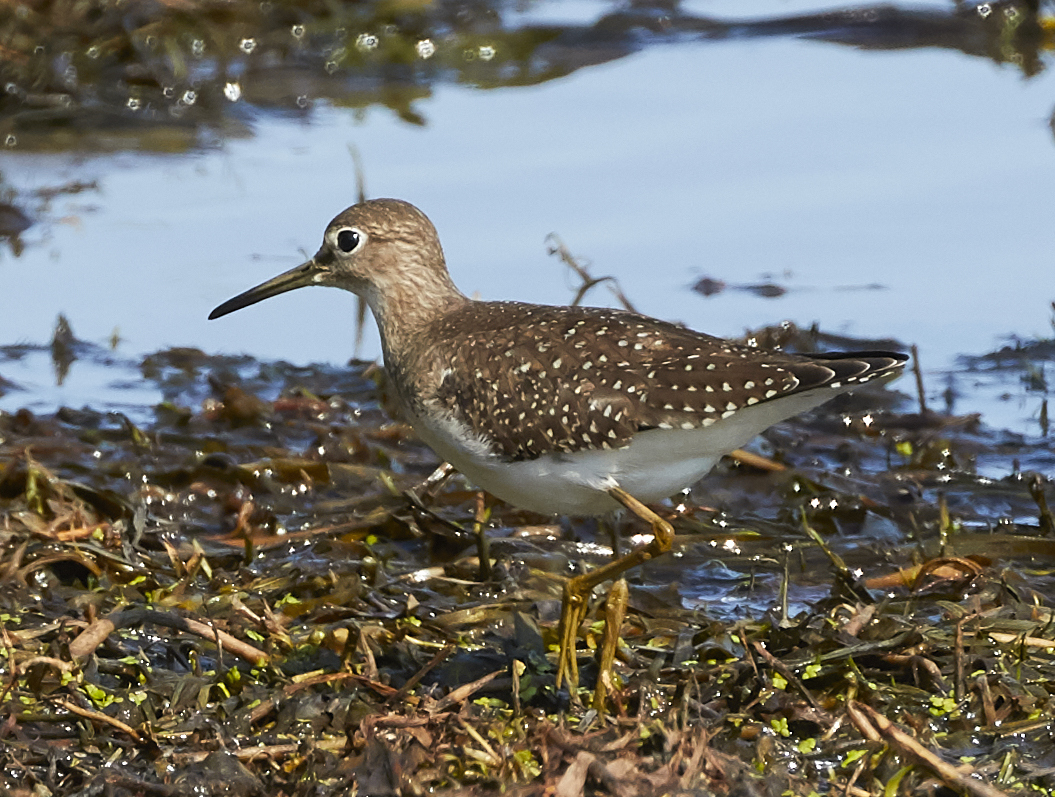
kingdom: Animalia
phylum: Chordata
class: Aves
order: Charadriiformes
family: Scolopacidae
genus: Tringa
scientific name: Tringa solitaria
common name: Solitary sandpiper
